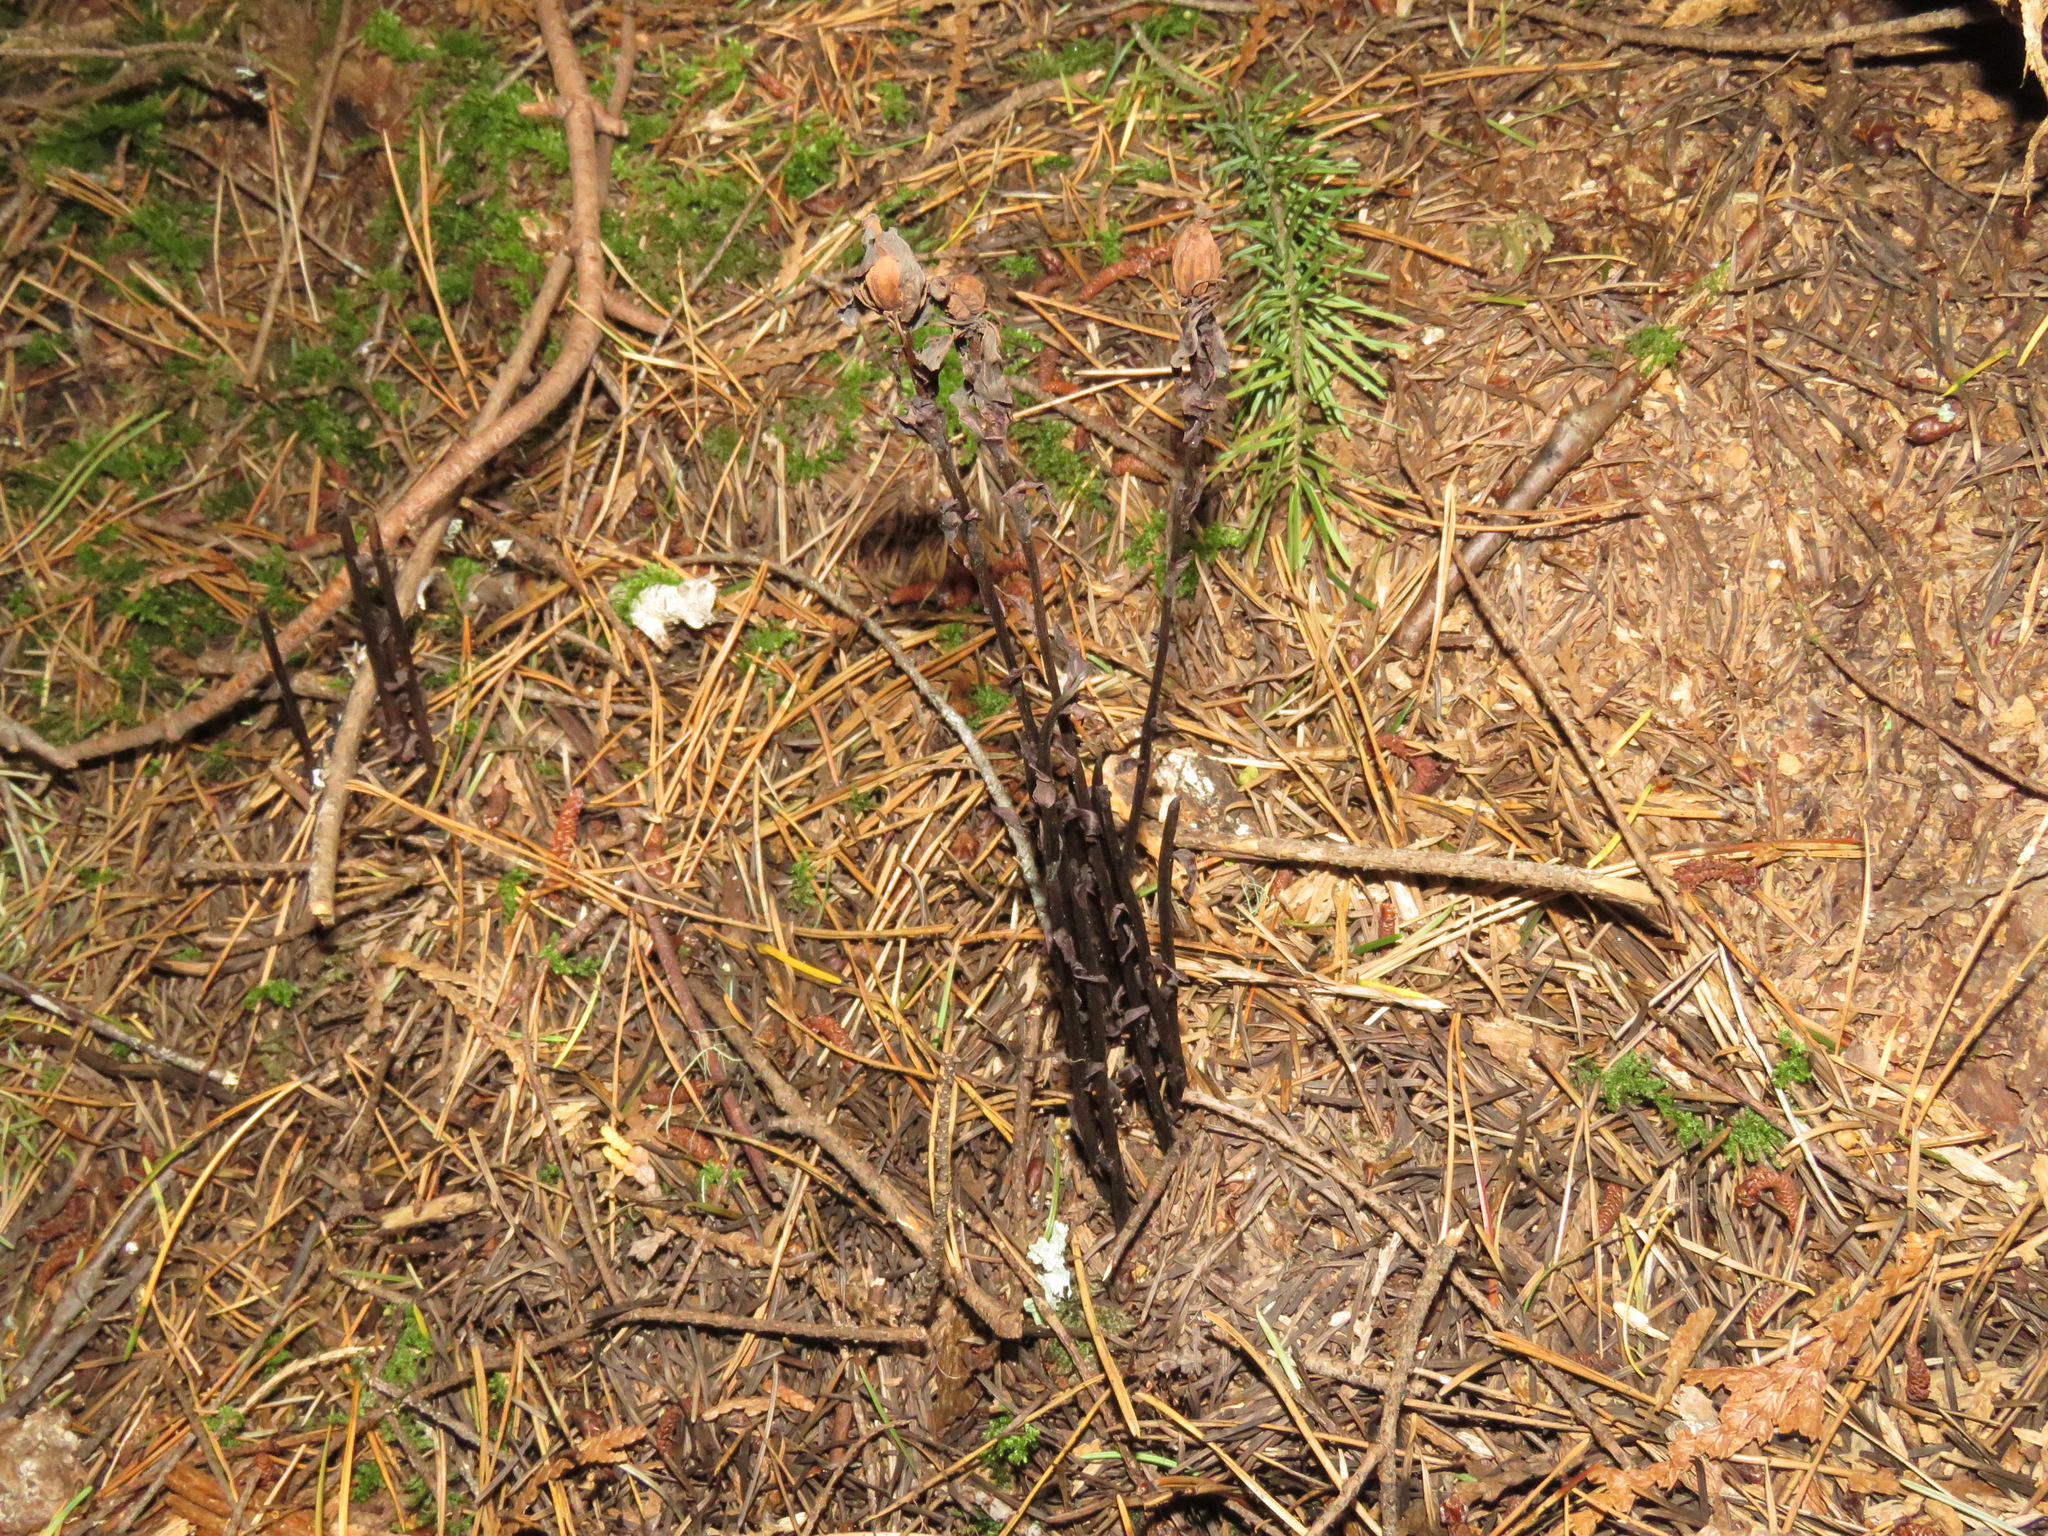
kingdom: Plantae
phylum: Tracheophyta
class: Magnoliopsida
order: Ericales
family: Ericaceae
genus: Monotropa
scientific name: Monotropa uniflora
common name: Convulsion root
